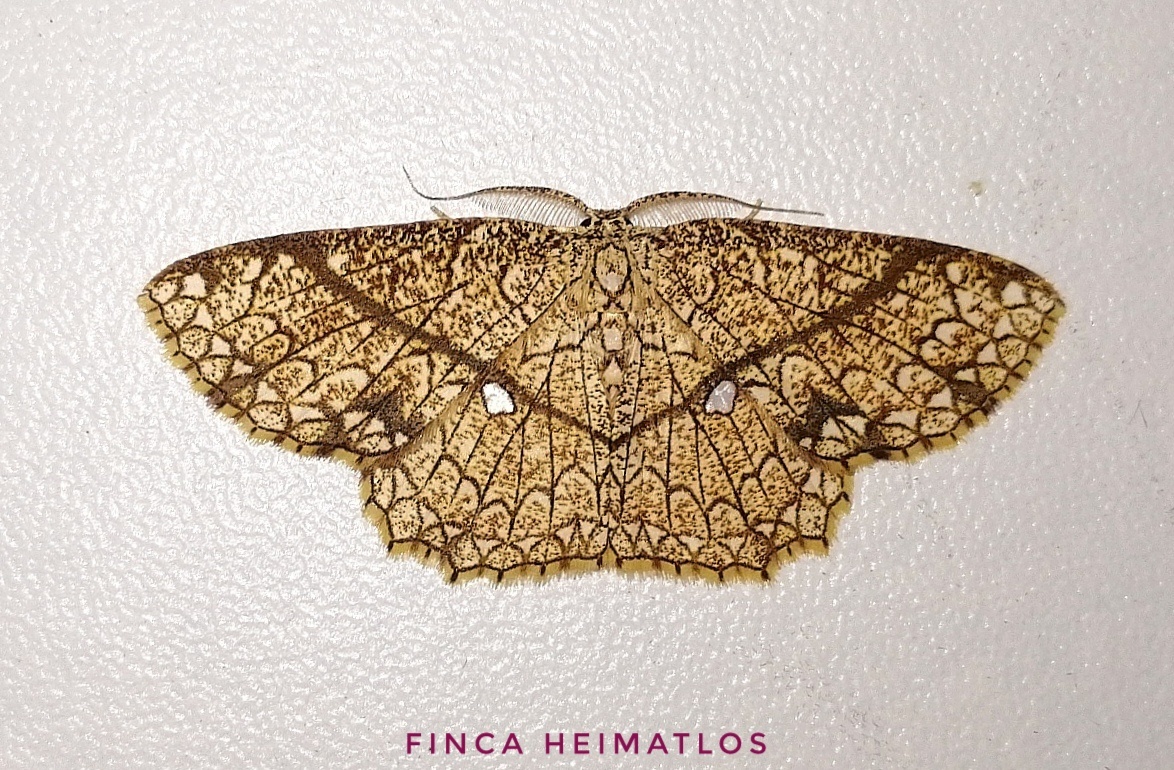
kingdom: Animalia
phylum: Arthropoda
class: Insecta
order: Lepidoptera
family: Geometridae
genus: Cyclophora
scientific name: Cyclophora insigniata
